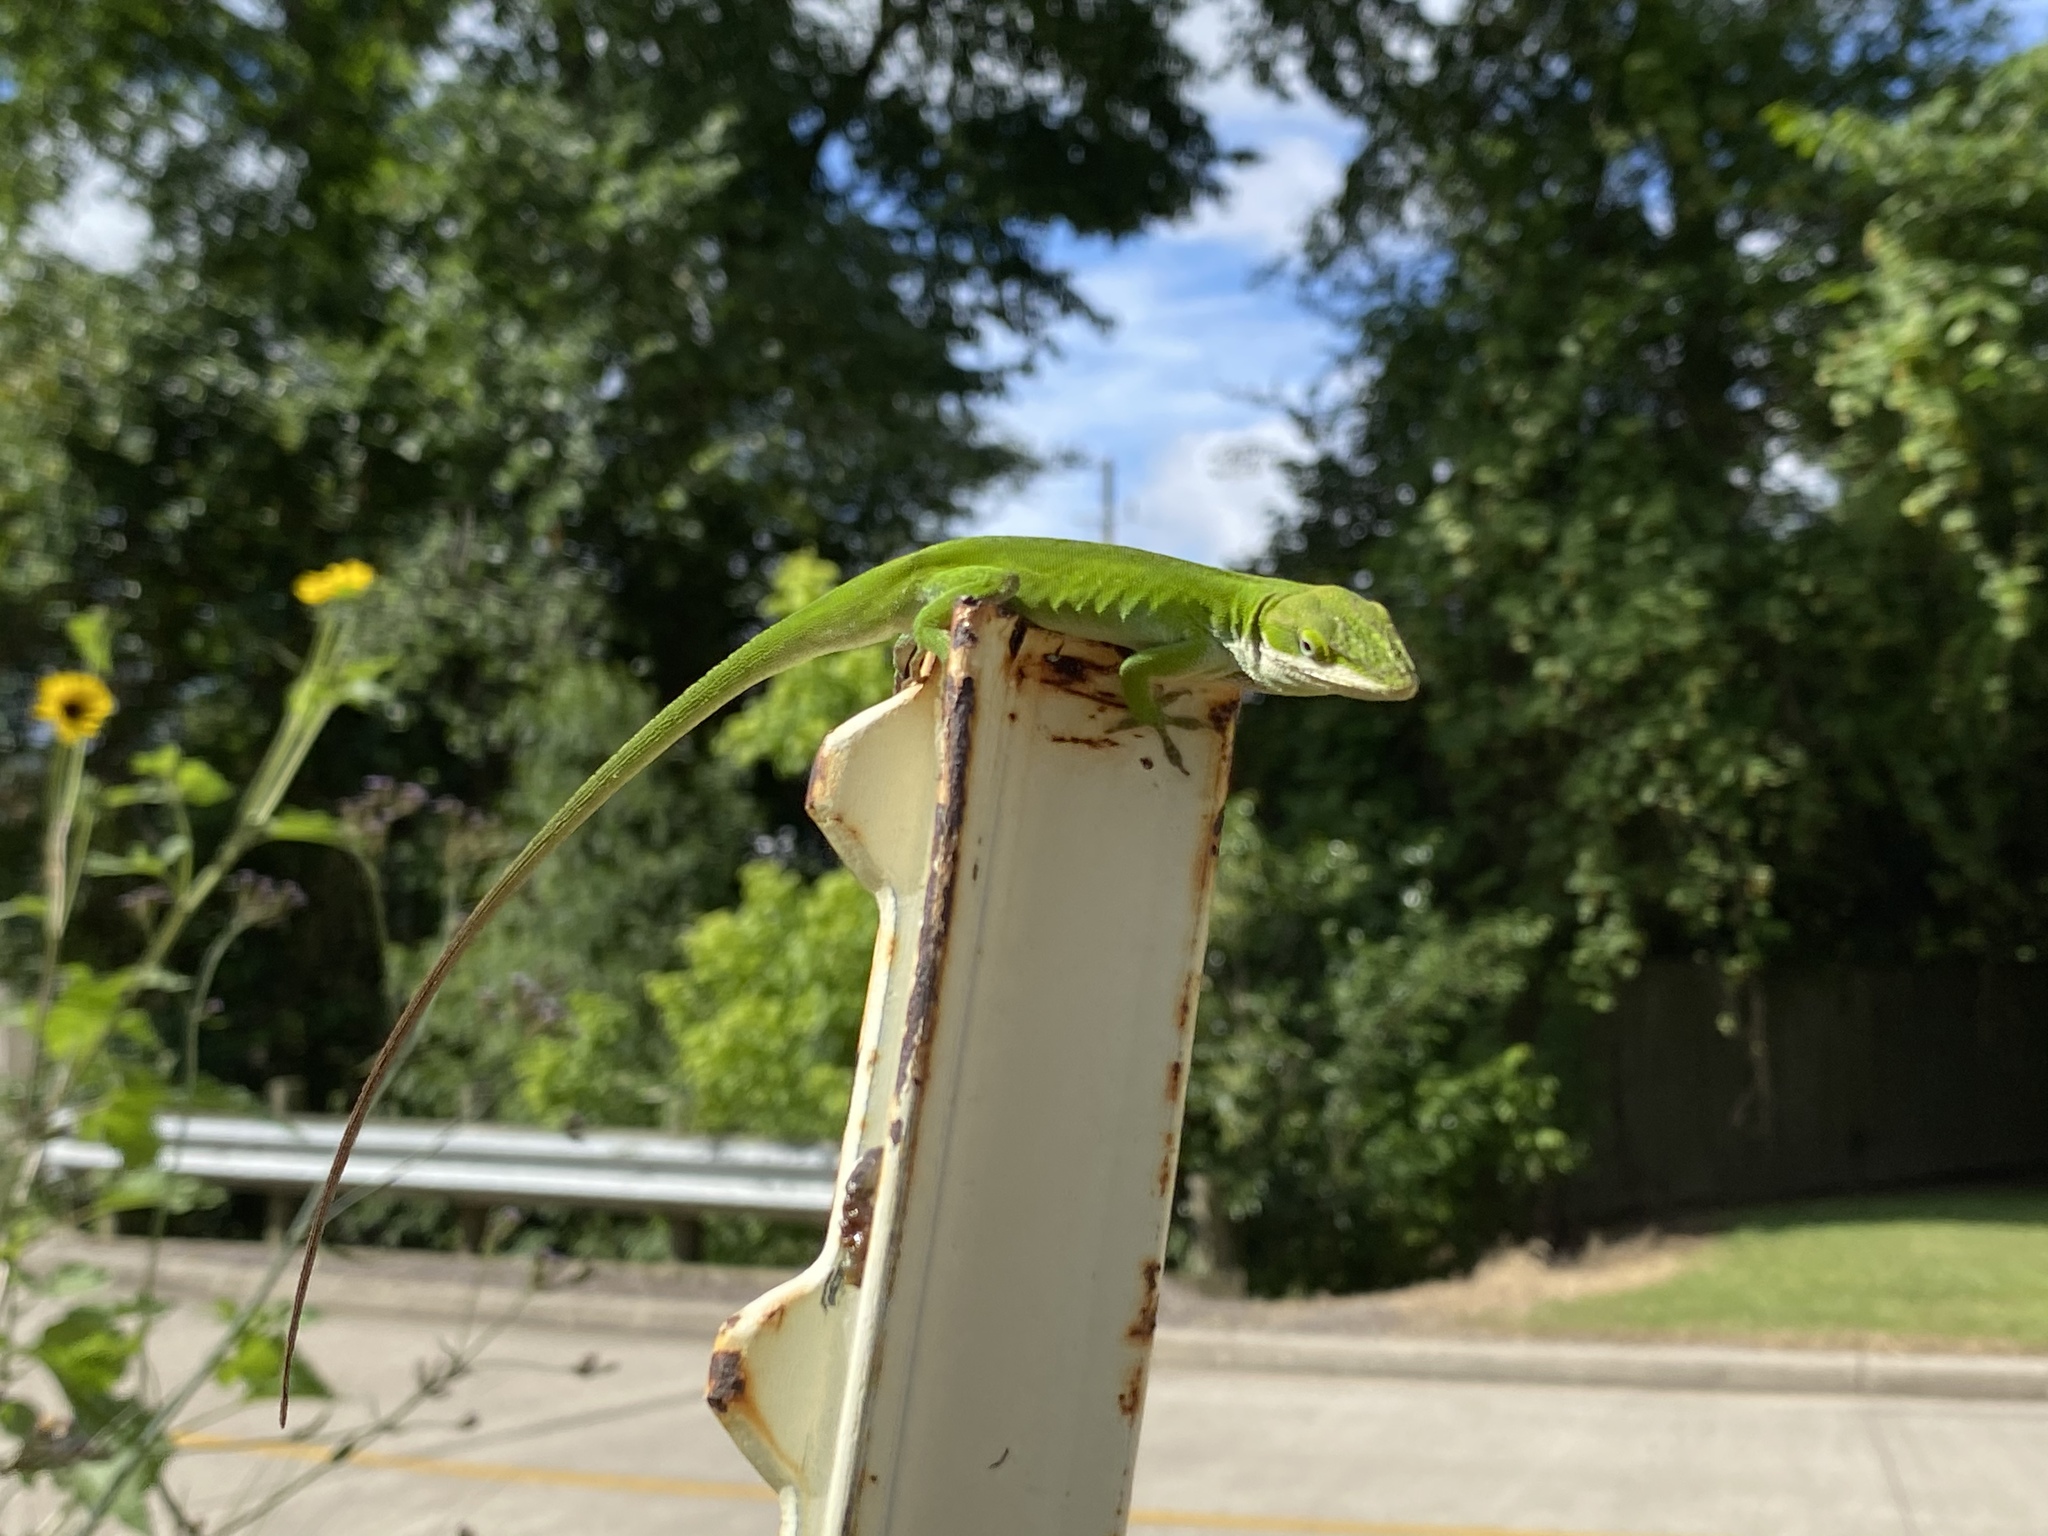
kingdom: Animalia
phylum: Chordata
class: Squamata
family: Dactyloidae
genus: Anolis
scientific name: Anolis carolinensis
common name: Green anole
